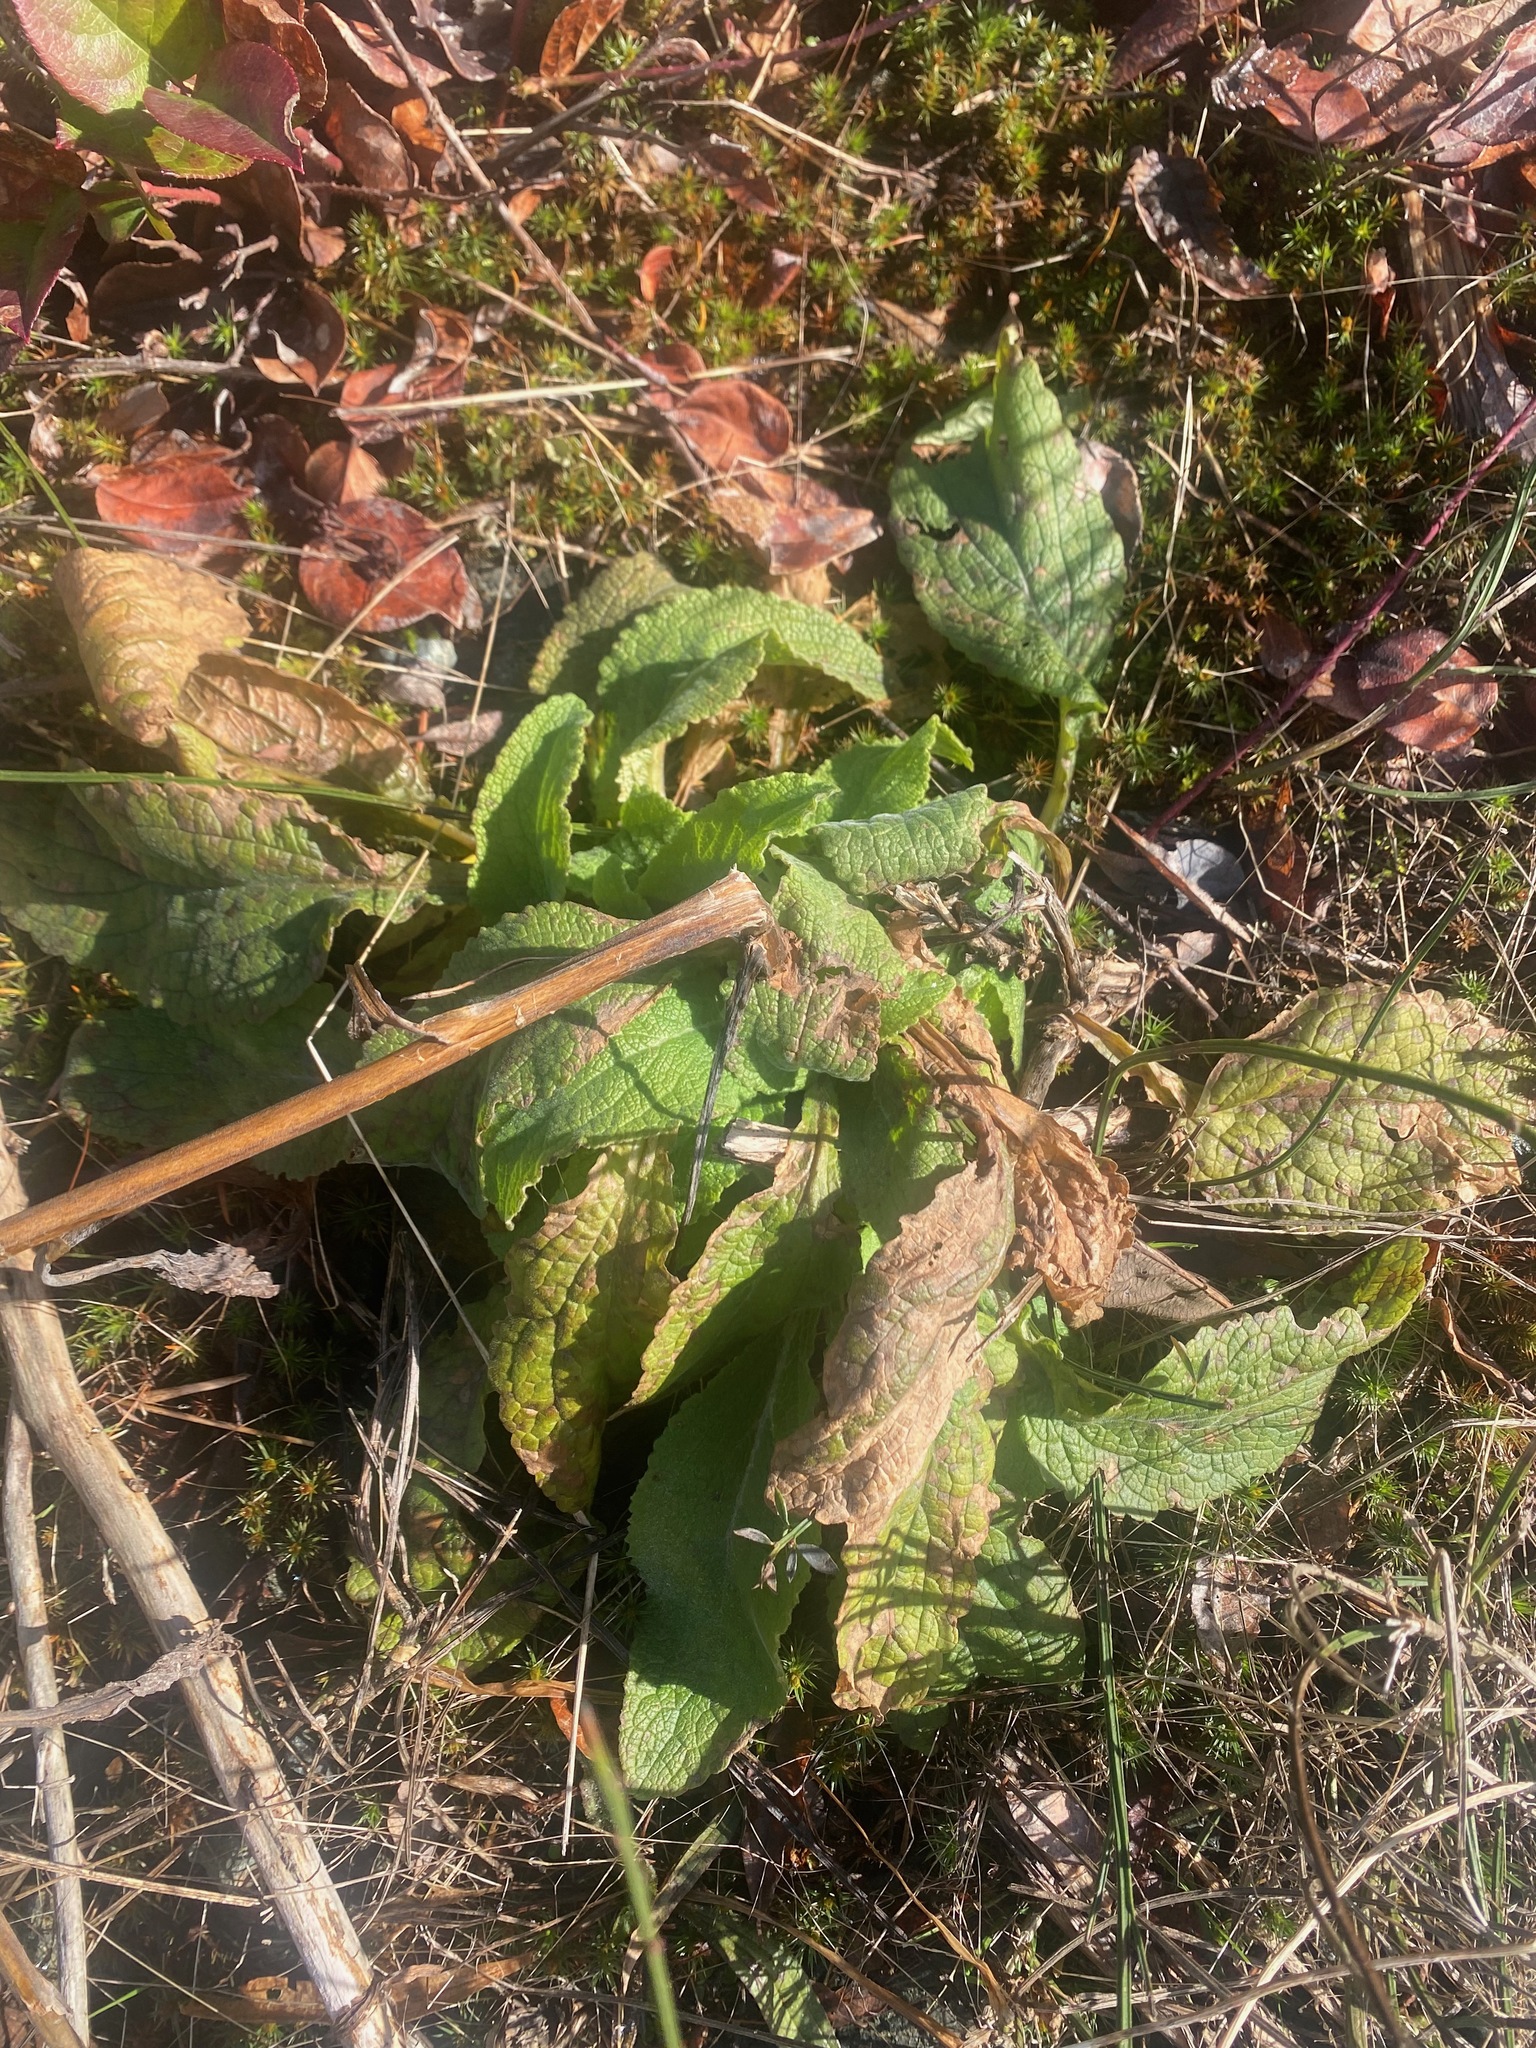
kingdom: Plantae
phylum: Tracheophyta
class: Magnoliopsida
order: Lamiales
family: Plantaginaceae
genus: Digitalis
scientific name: Digitalis purpurea
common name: Foxglove
